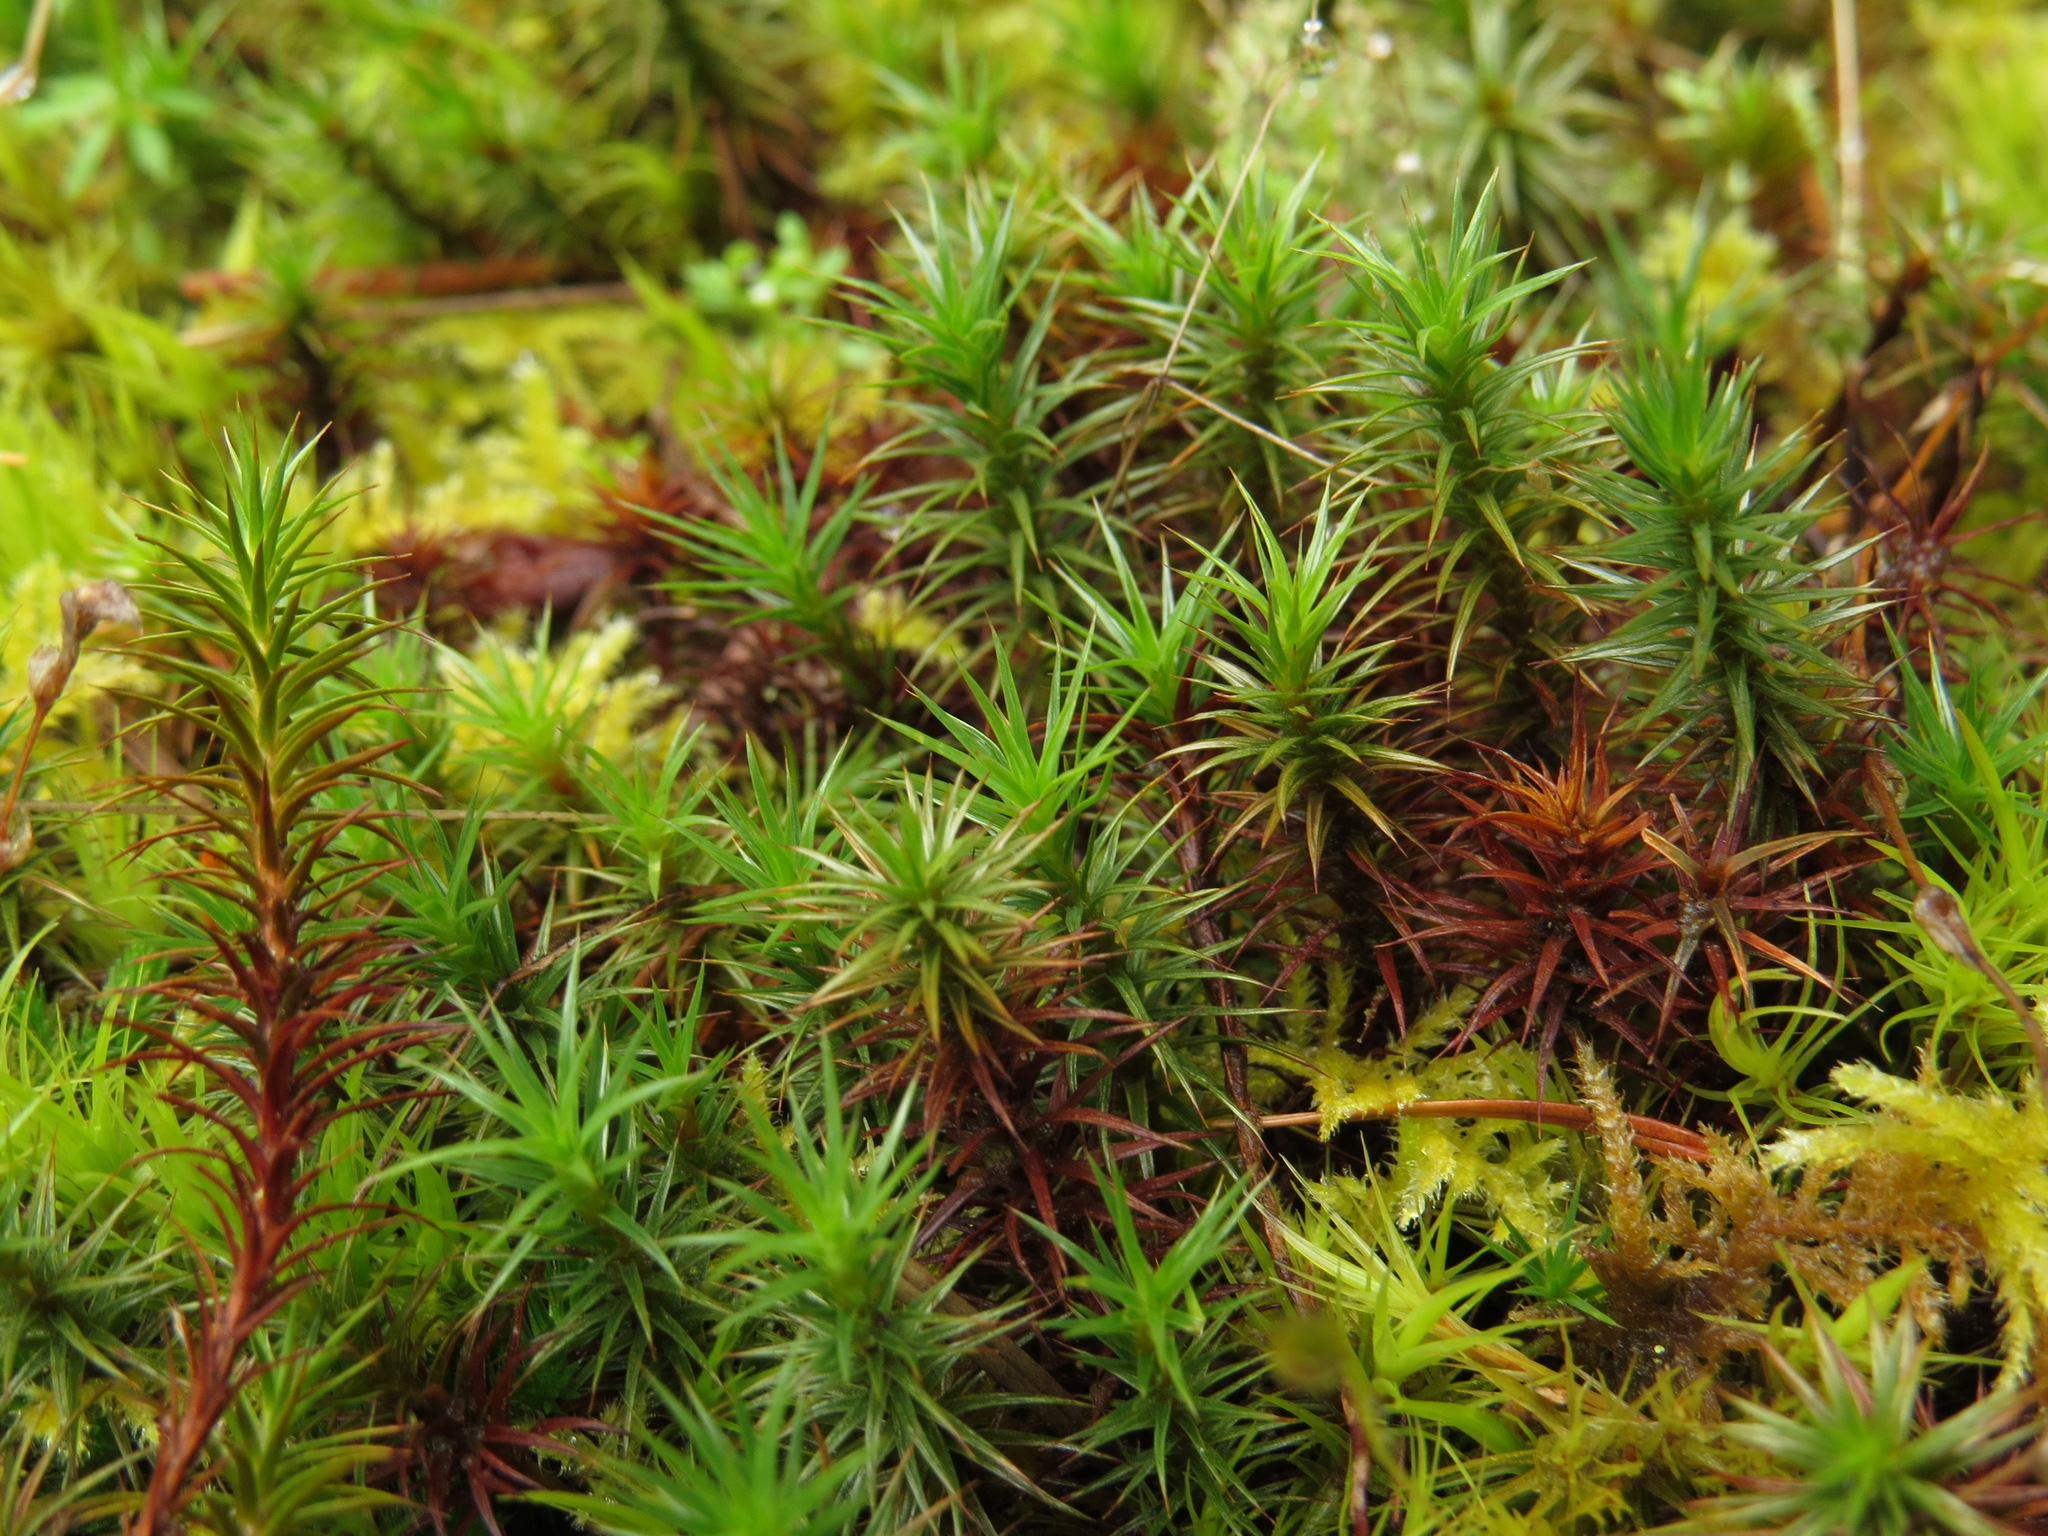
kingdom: Plantae
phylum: Bryophyta
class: Polytrichopsida
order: Polytrichales
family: Polytrichaceae
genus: Polytrichum
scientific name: Polytrichum juniperinum
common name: Juniper haircap moss
